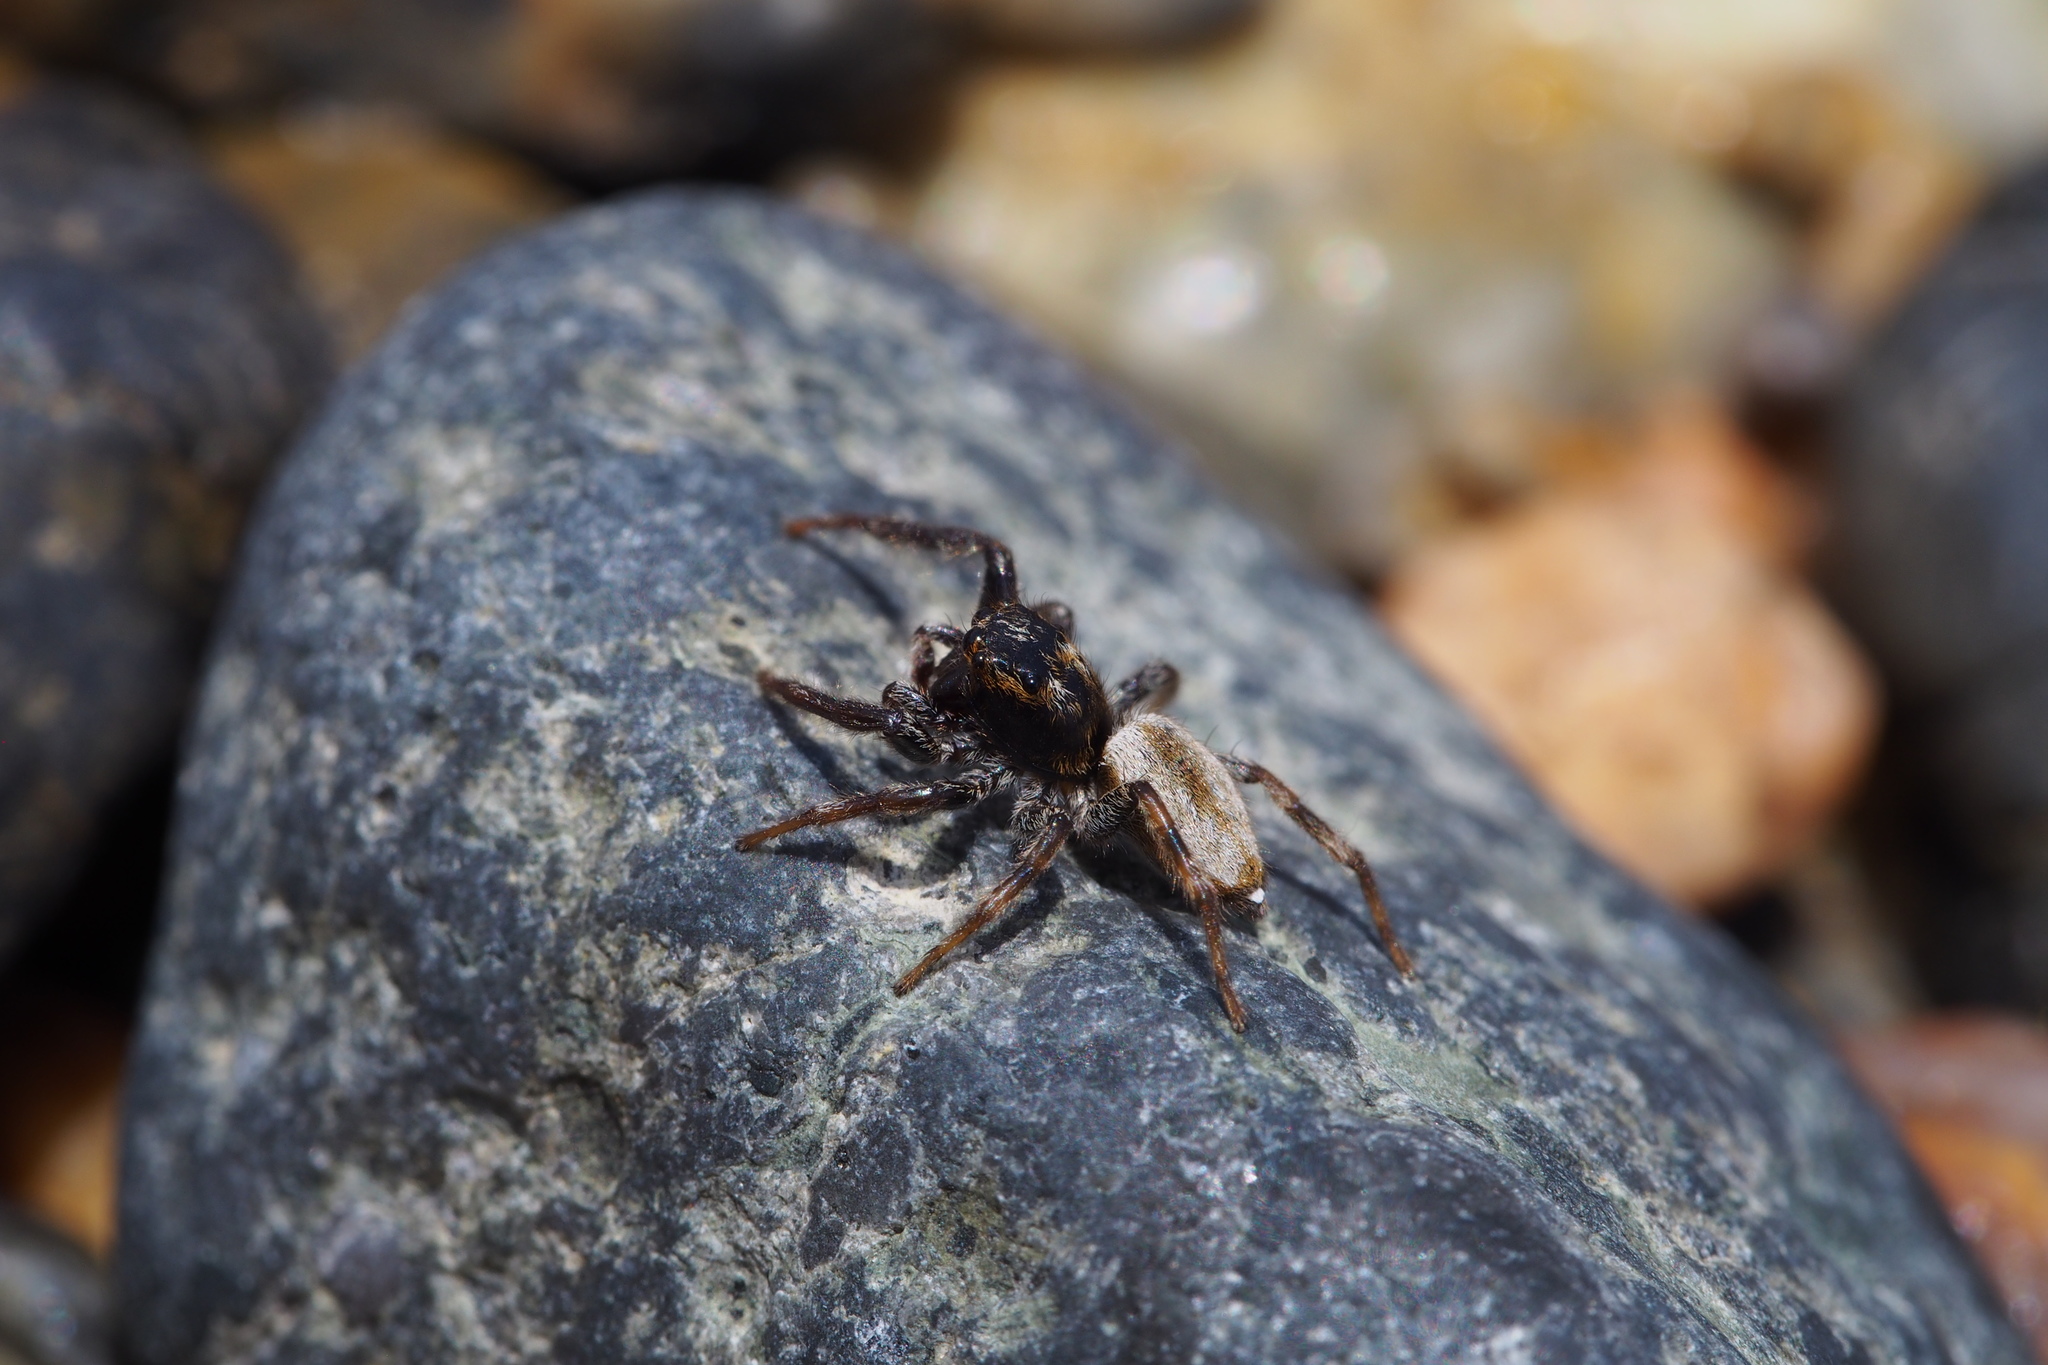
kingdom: Animalia
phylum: Arthropoda
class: Arachnida
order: Araneae
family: Salticidae
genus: Hakka
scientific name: Hakka himeshimensis
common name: Jumping spider
